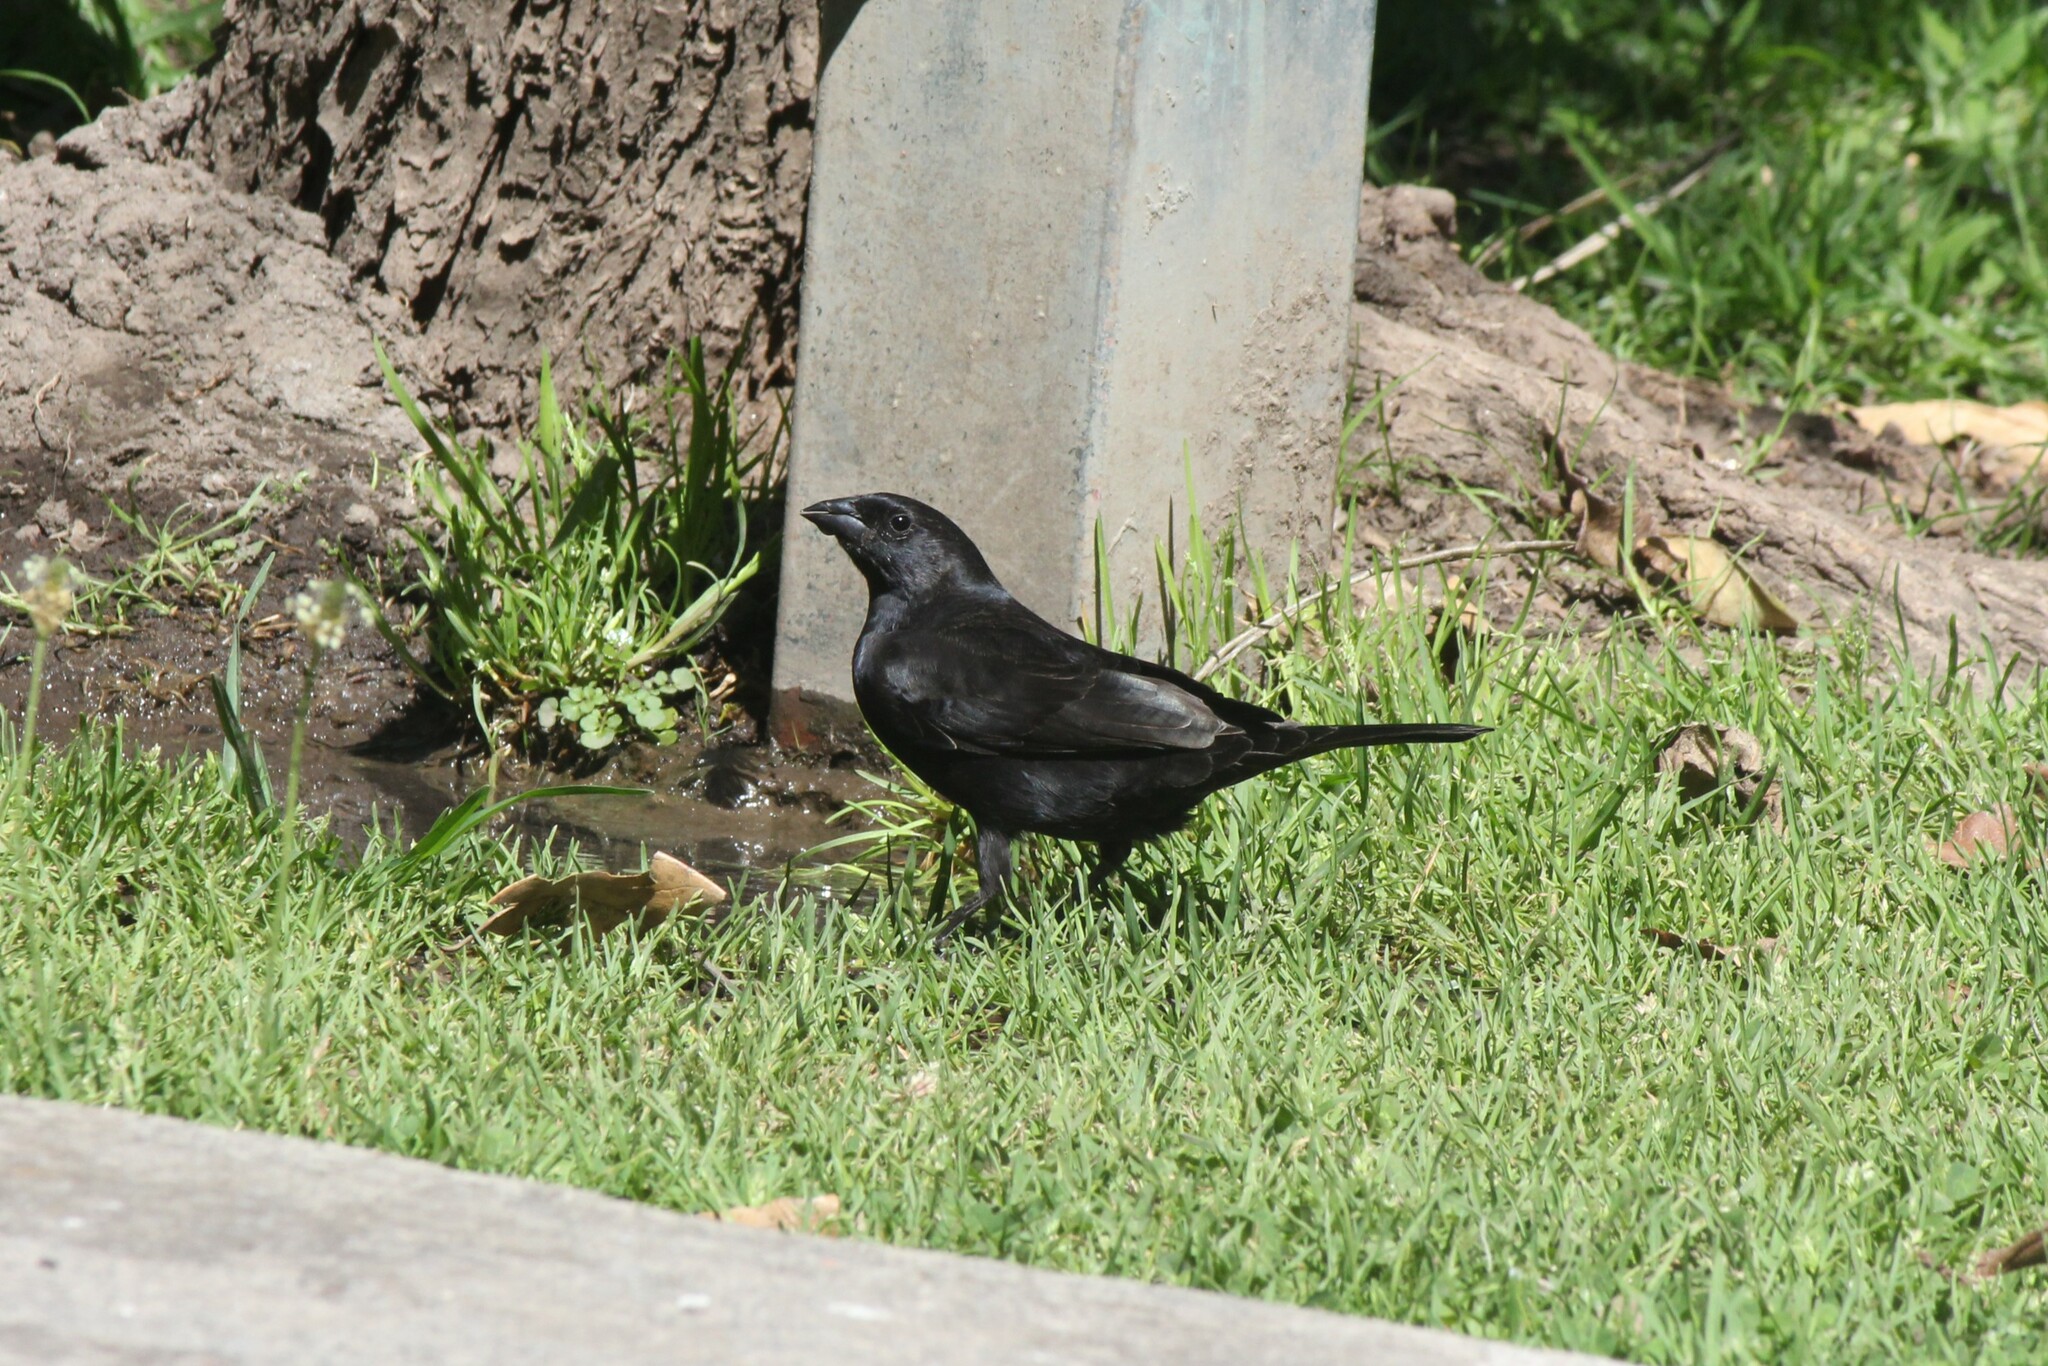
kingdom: Animalia
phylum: Chordata
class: Aves
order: Passeriformes
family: Icteridae
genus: Molothrus
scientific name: Molothrus bonariensis
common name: Shiny cowbird
